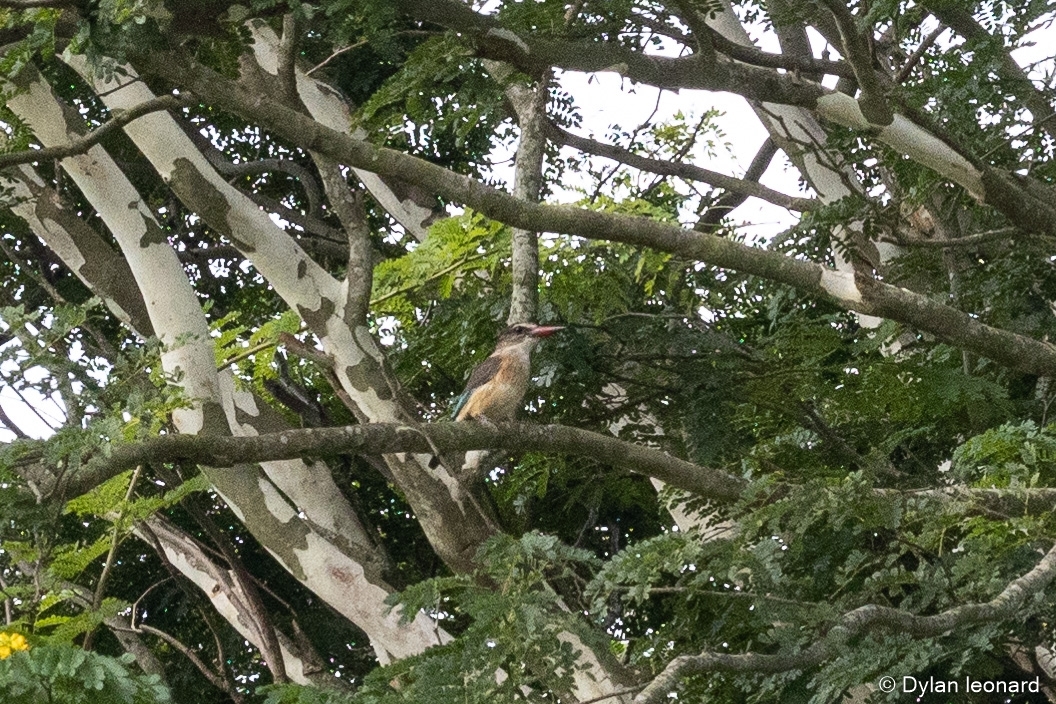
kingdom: Animalia
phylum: Chordata
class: Aves
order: Coraciiformes
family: Alcedinidae
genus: Halcyon
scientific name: Halcyon albiventris
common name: Brown-hooded kingfisher
